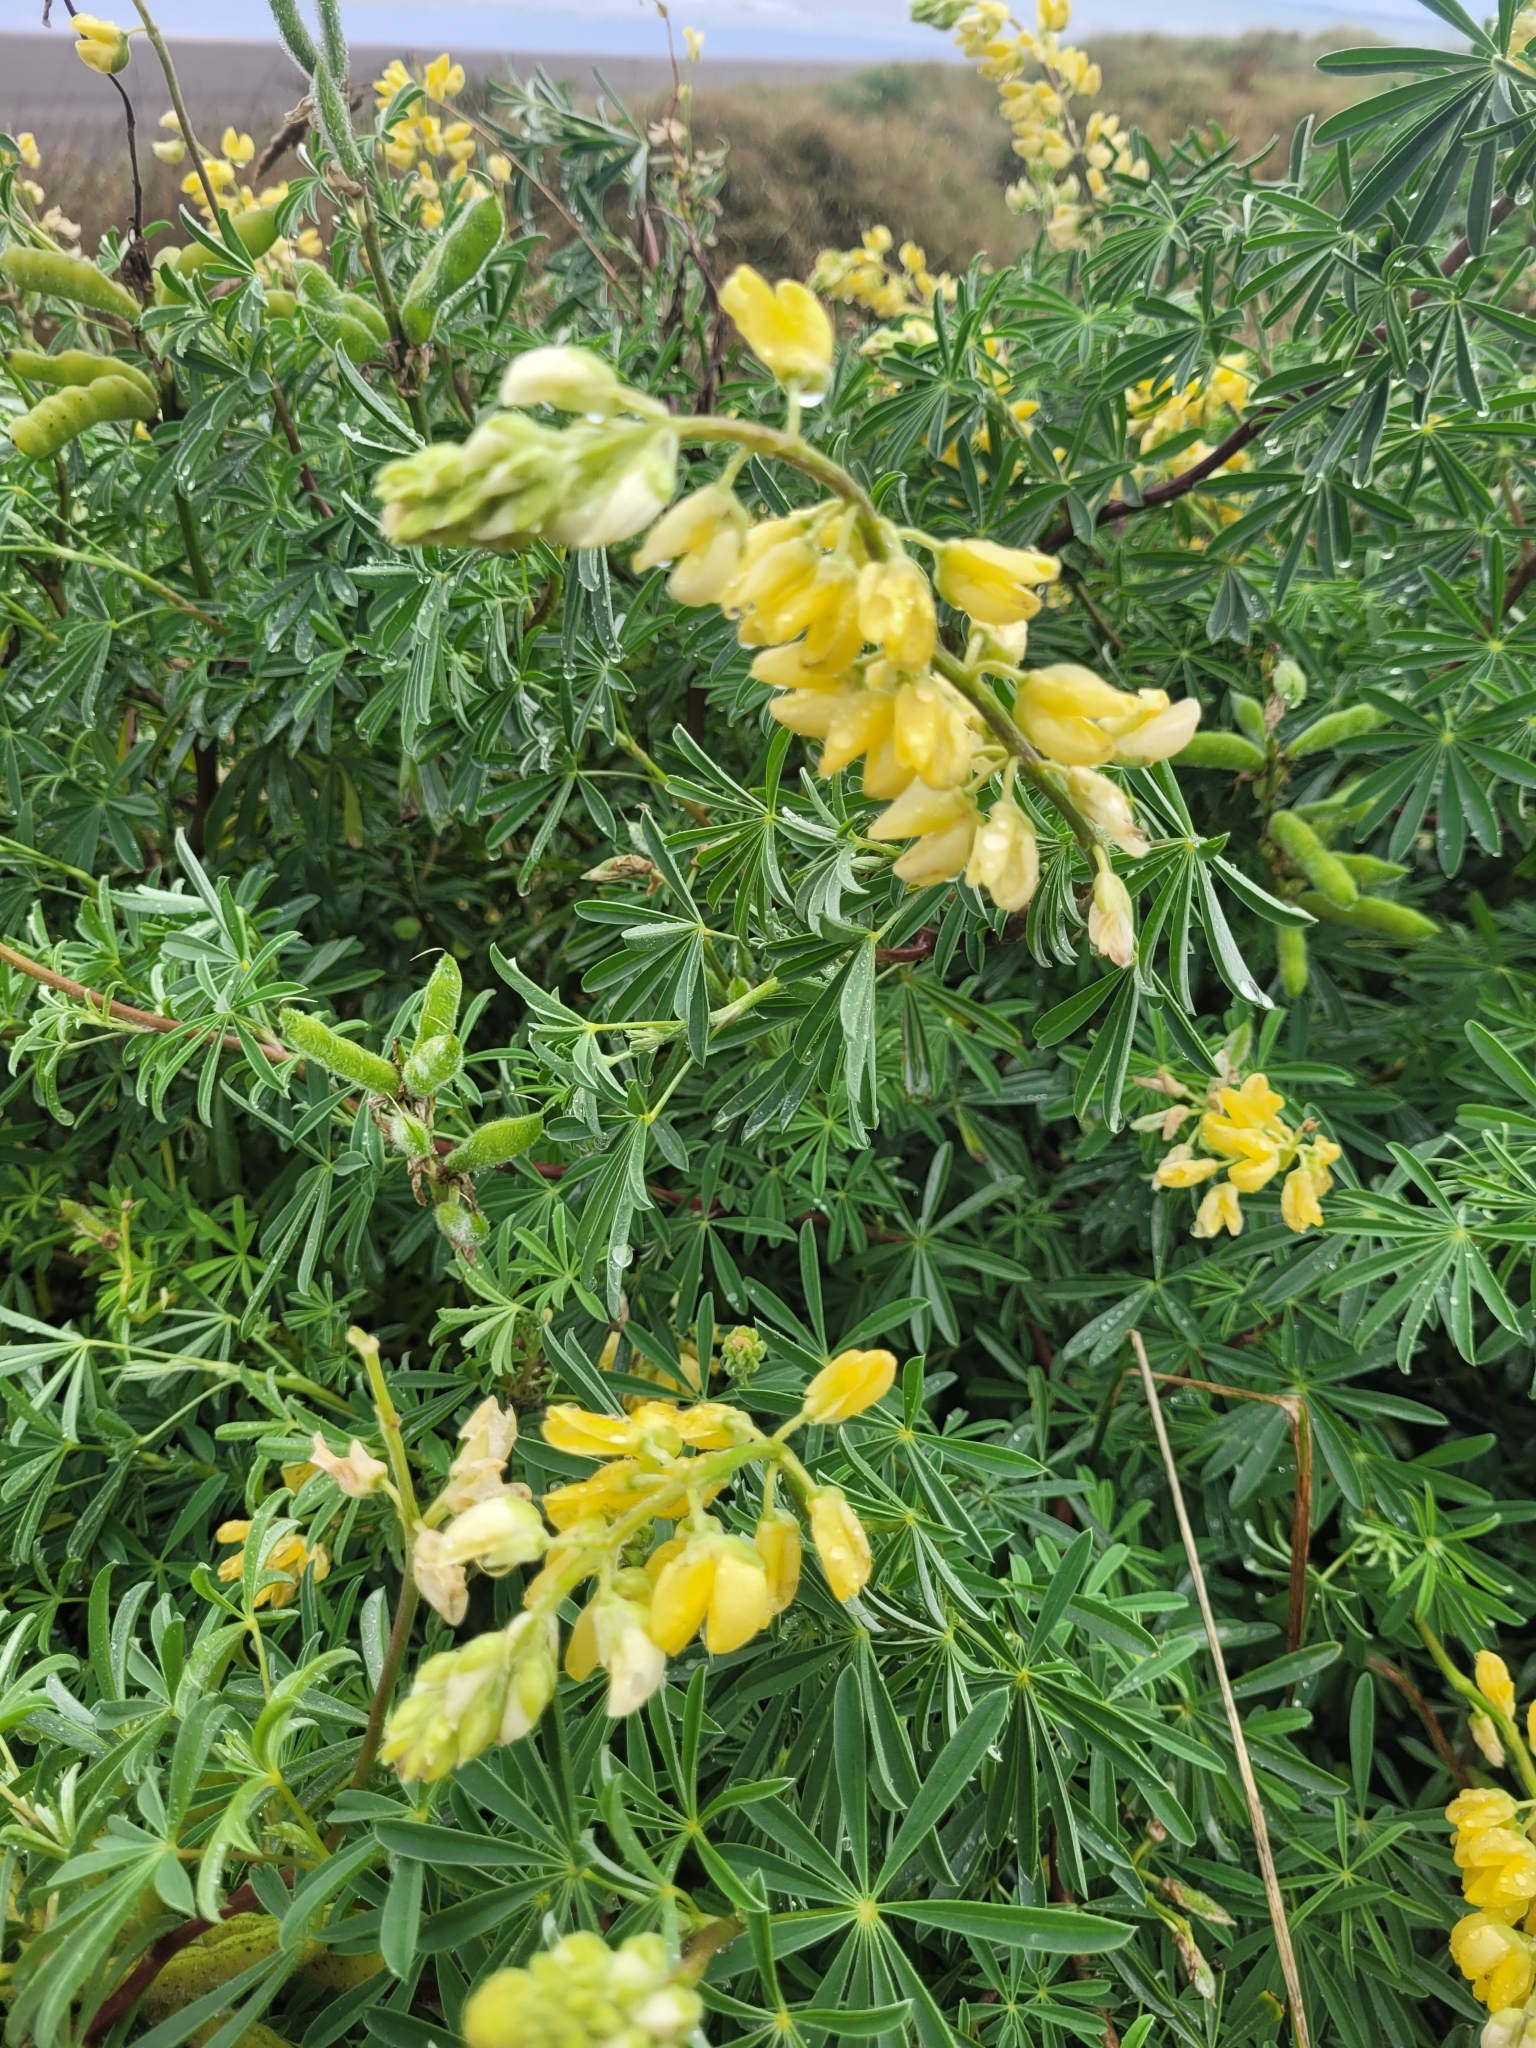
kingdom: Plantae
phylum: Tracheophyta
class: Magnoliopsida
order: Fabales
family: Fabaceae
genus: Lupinus
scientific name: Lupinus arboreus
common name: Yellow bush lupine
